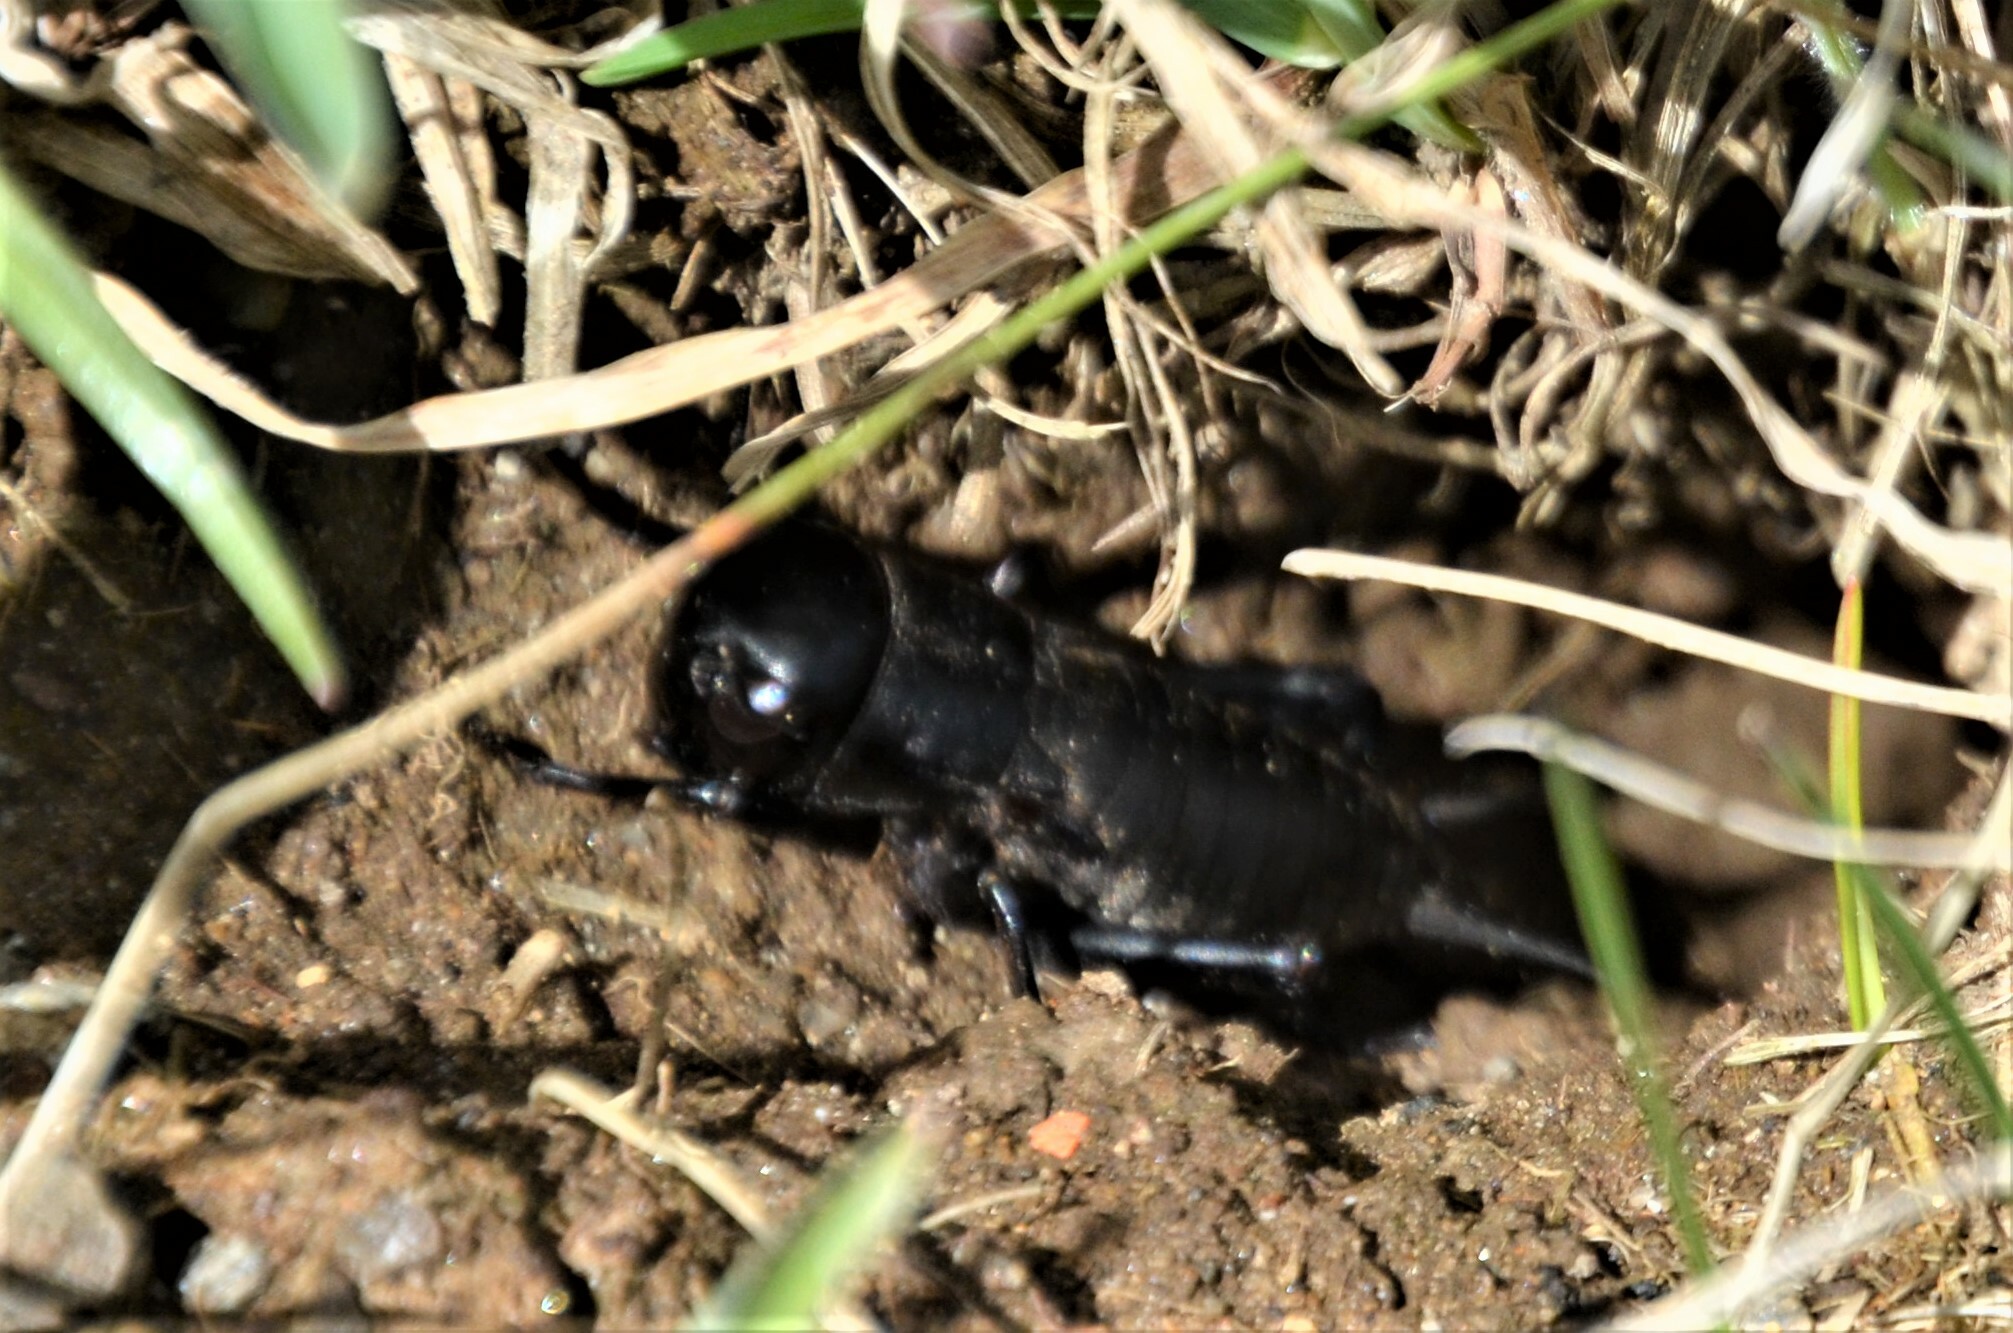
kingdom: Animalia
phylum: Arthropoda
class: Insecta
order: Orthoptera
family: Gryllidae
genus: Gryllus
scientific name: Gryllus campestris
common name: Field cricket
